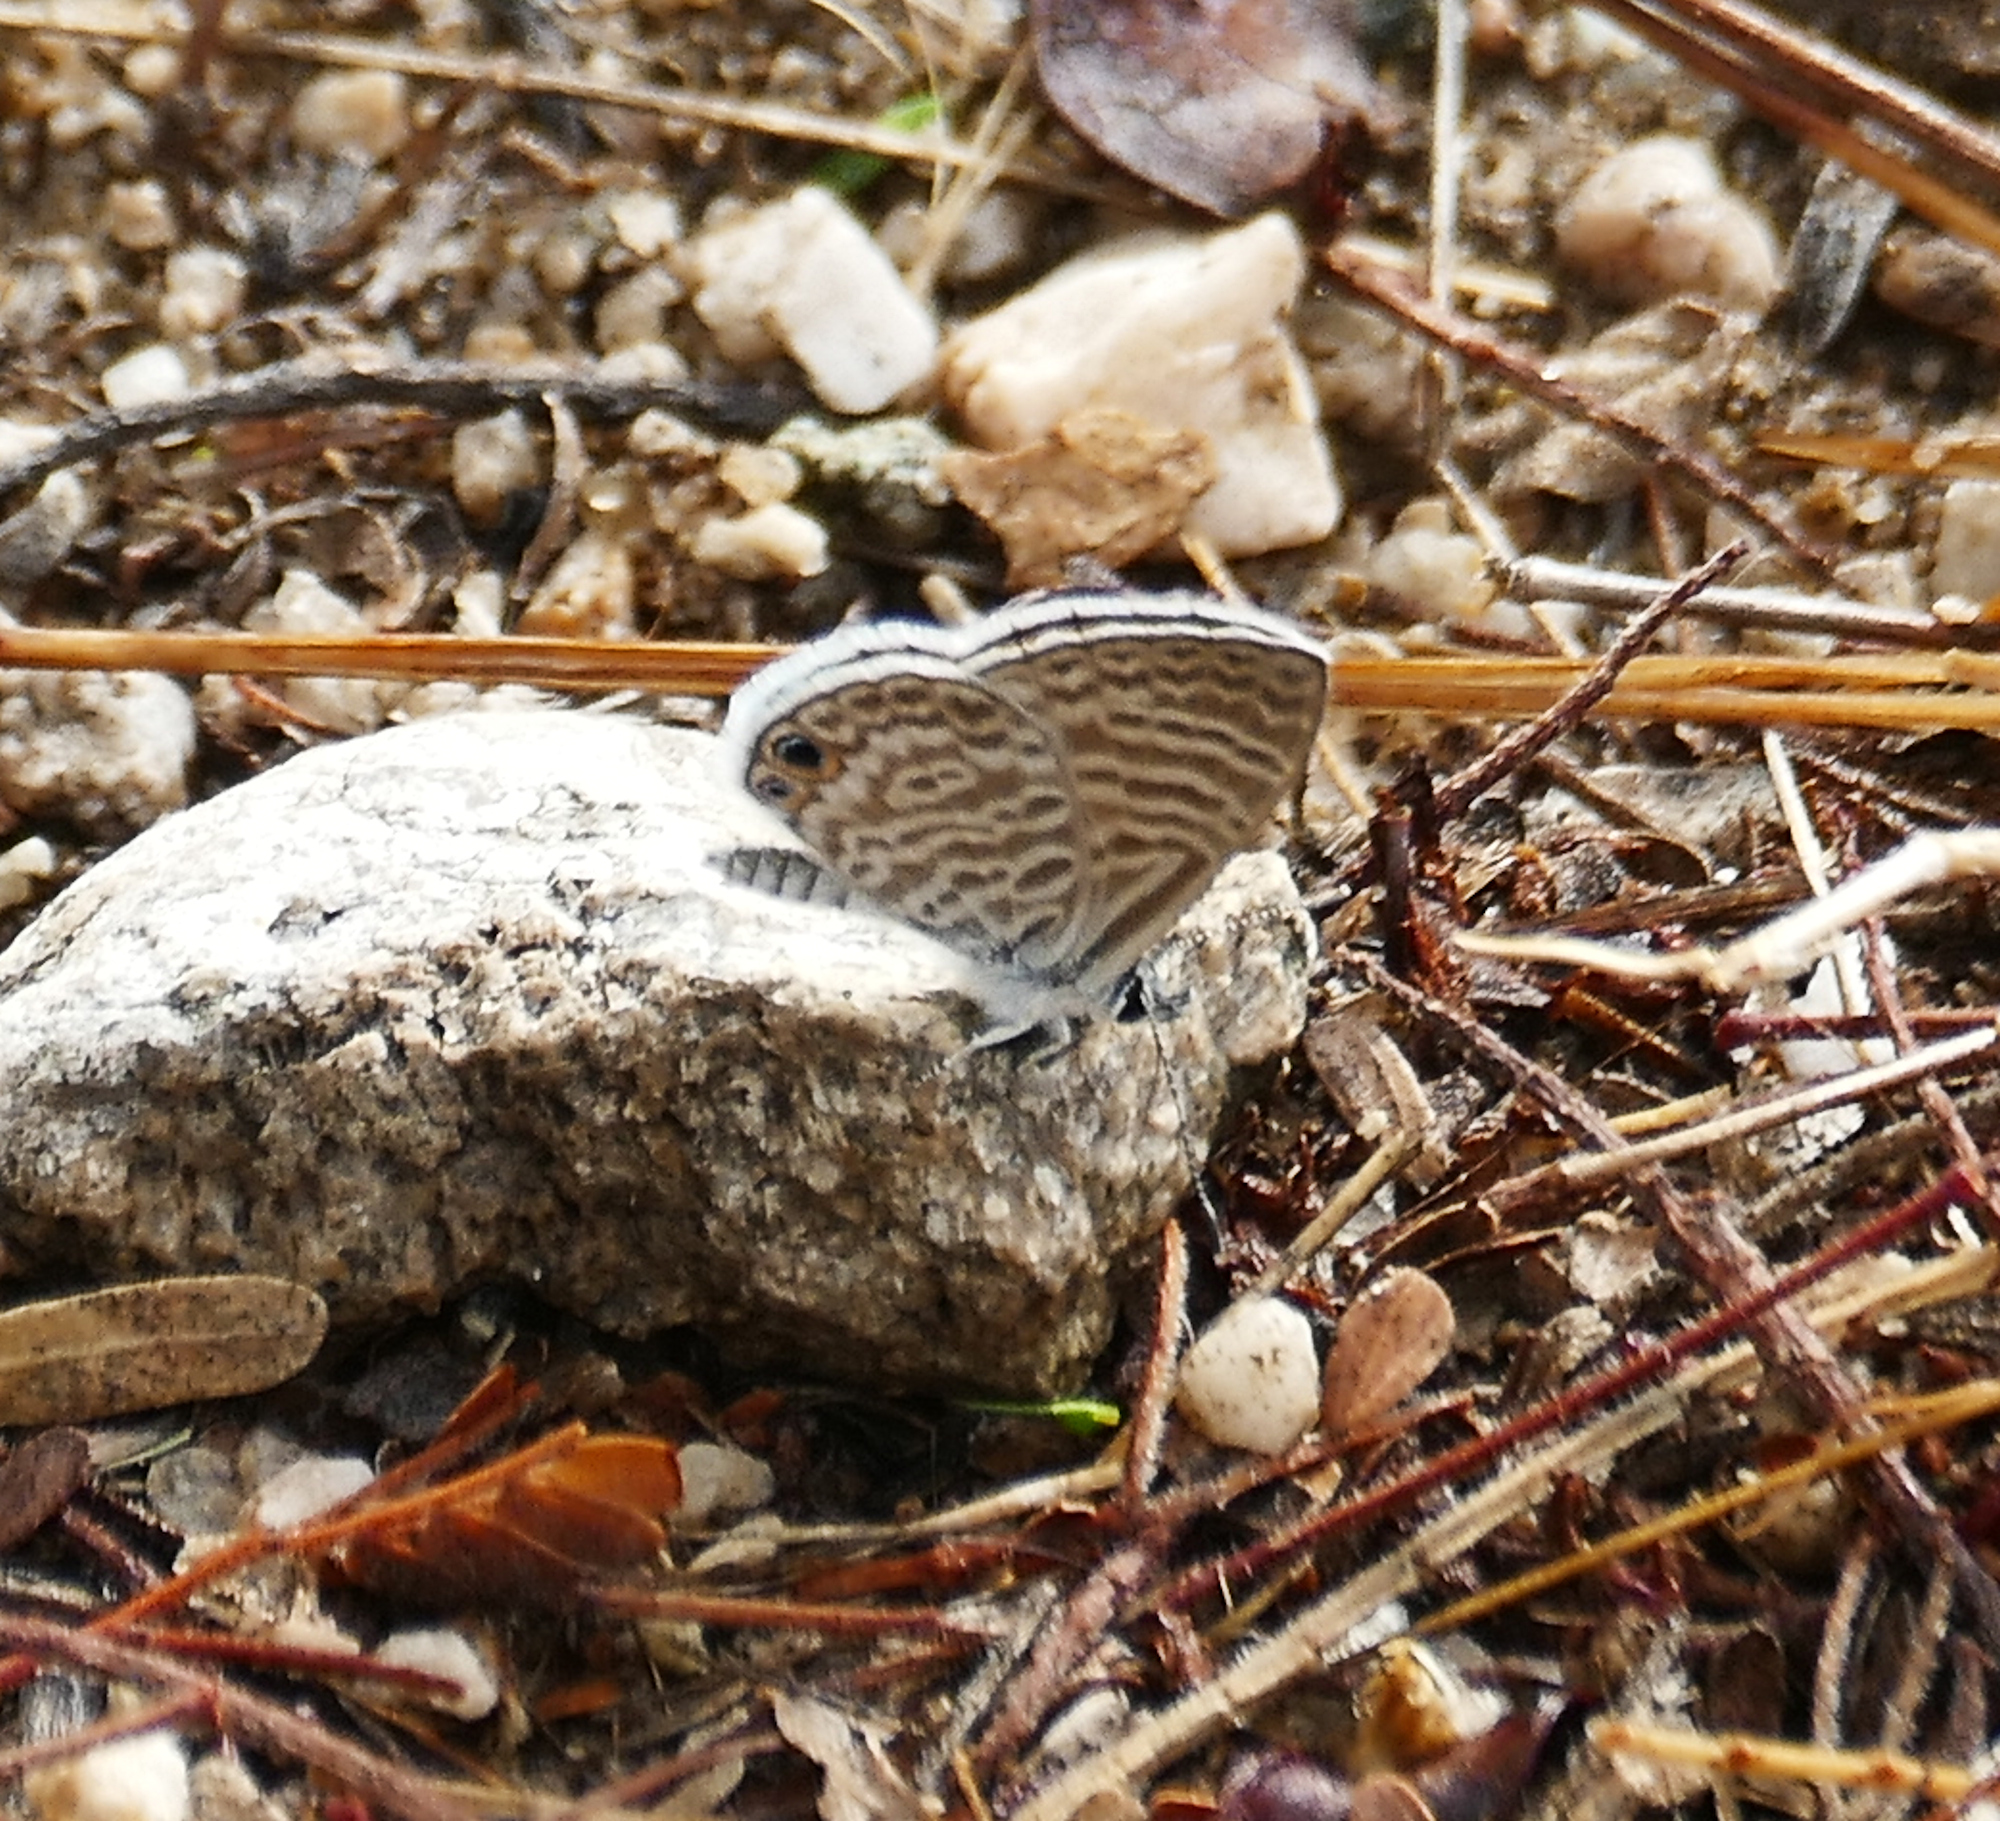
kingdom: Animalia
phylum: Arthropoda
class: Insecta
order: Lepidoptera
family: Lycaenidae
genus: Leptotes
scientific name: Leptotes marina
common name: Marine blue
